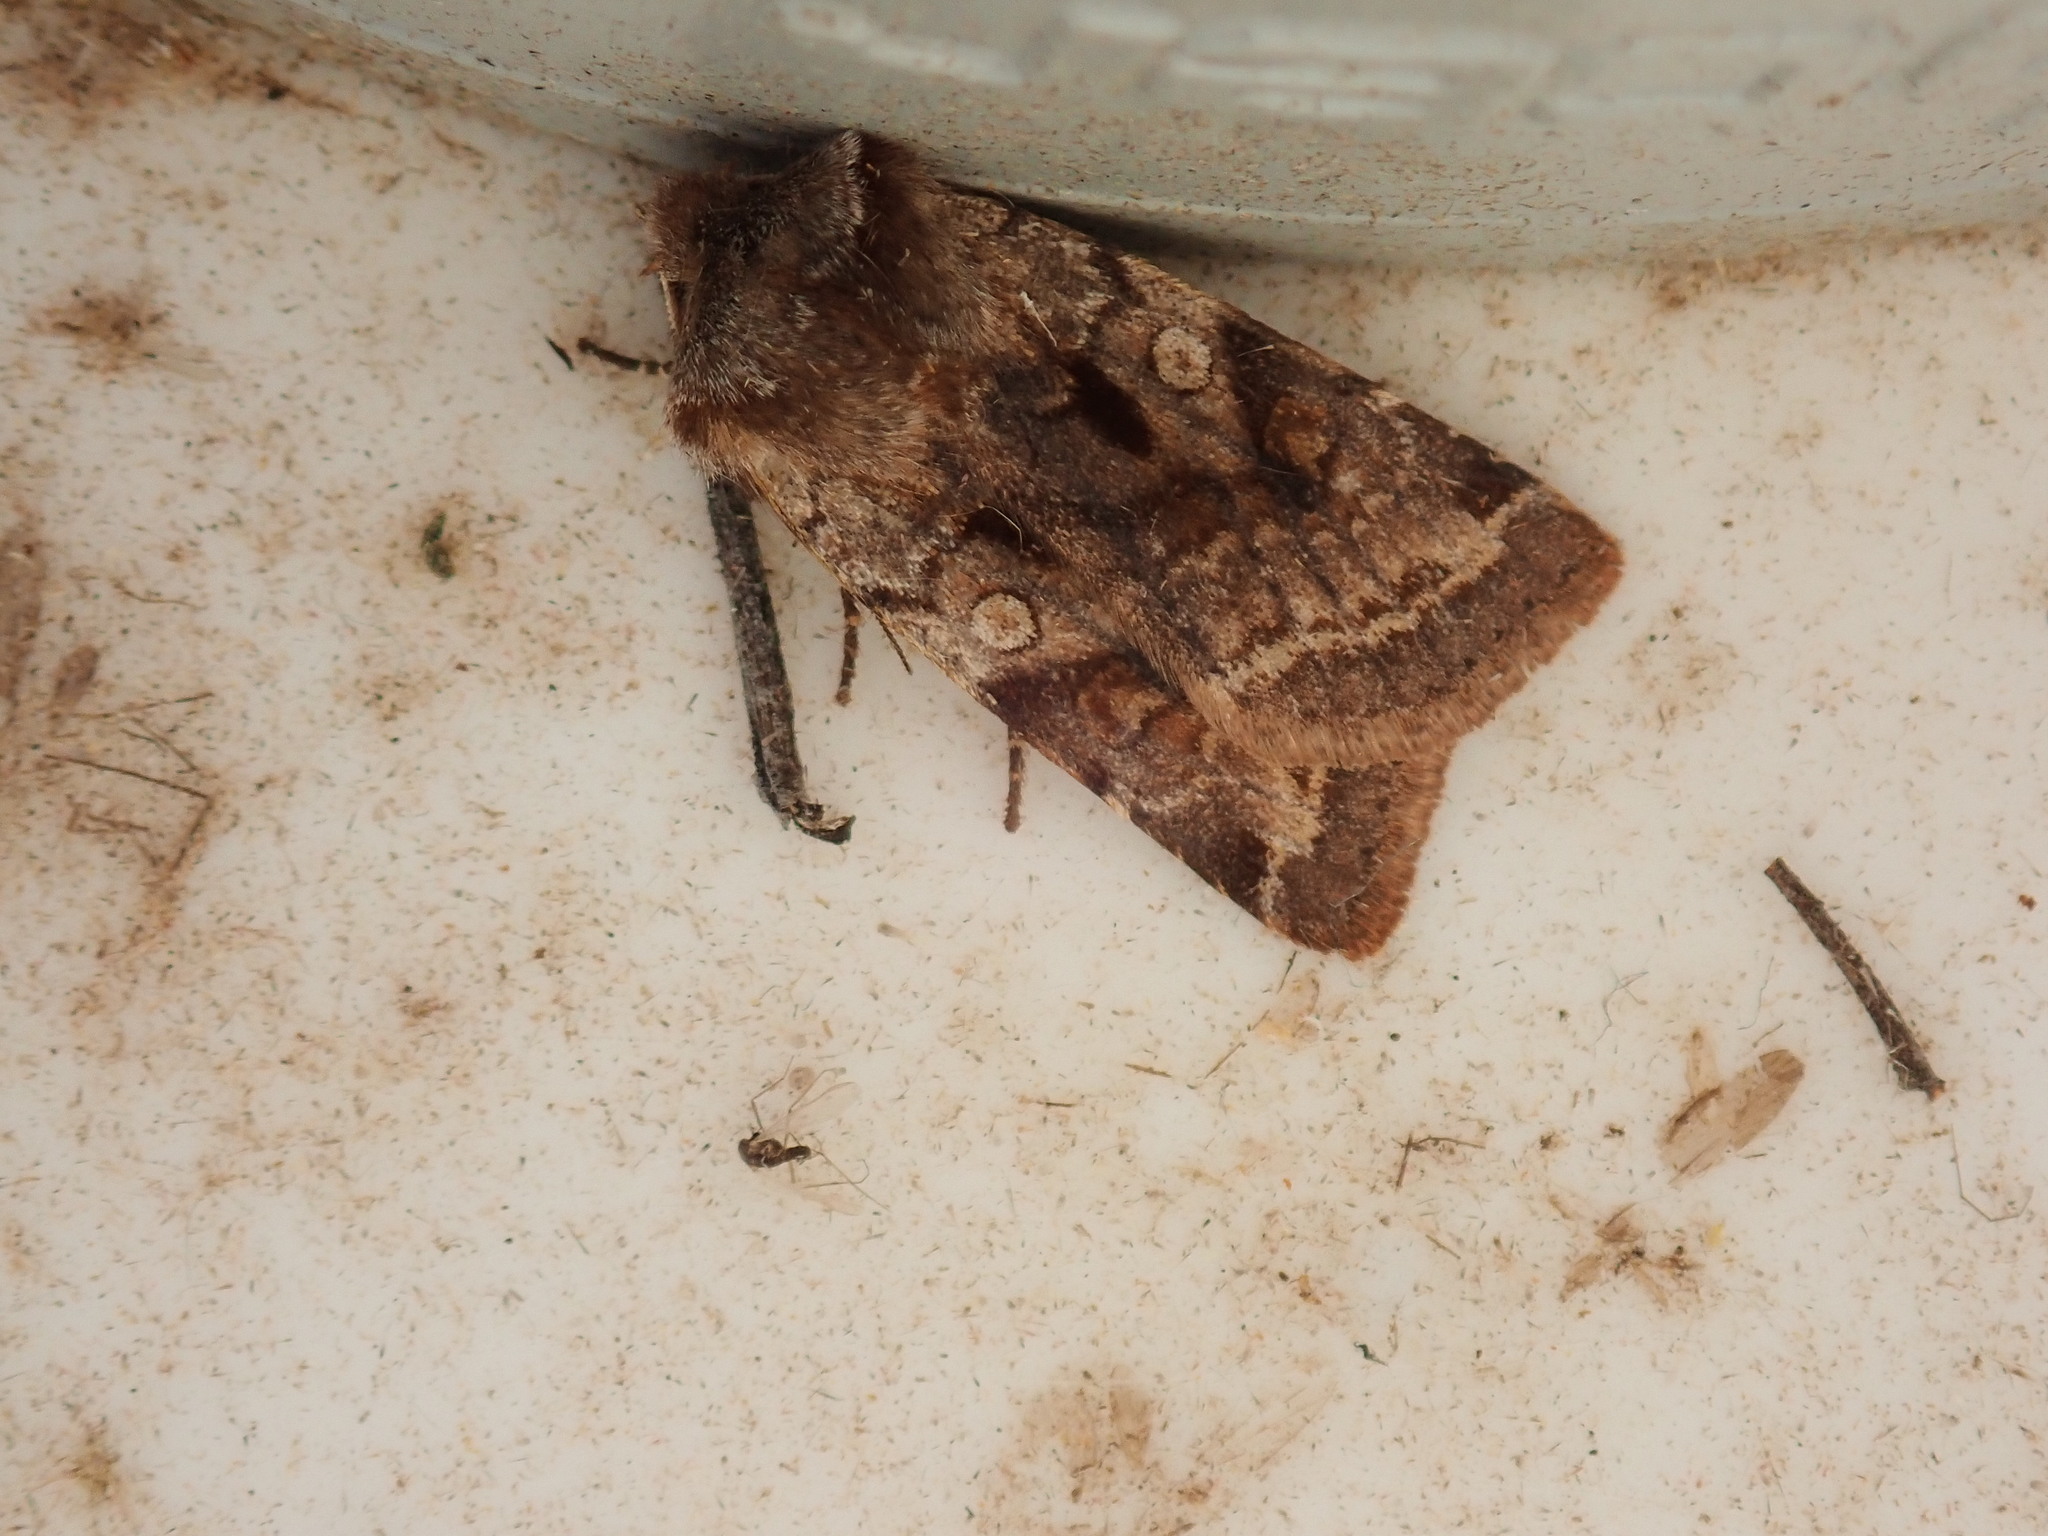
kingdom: Animalia
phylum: Arthropoda
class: Insecta
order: Lepidoptera
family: Noctuidae
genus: Cerastis
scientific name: Cerastis salicarum
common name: Willow dart
